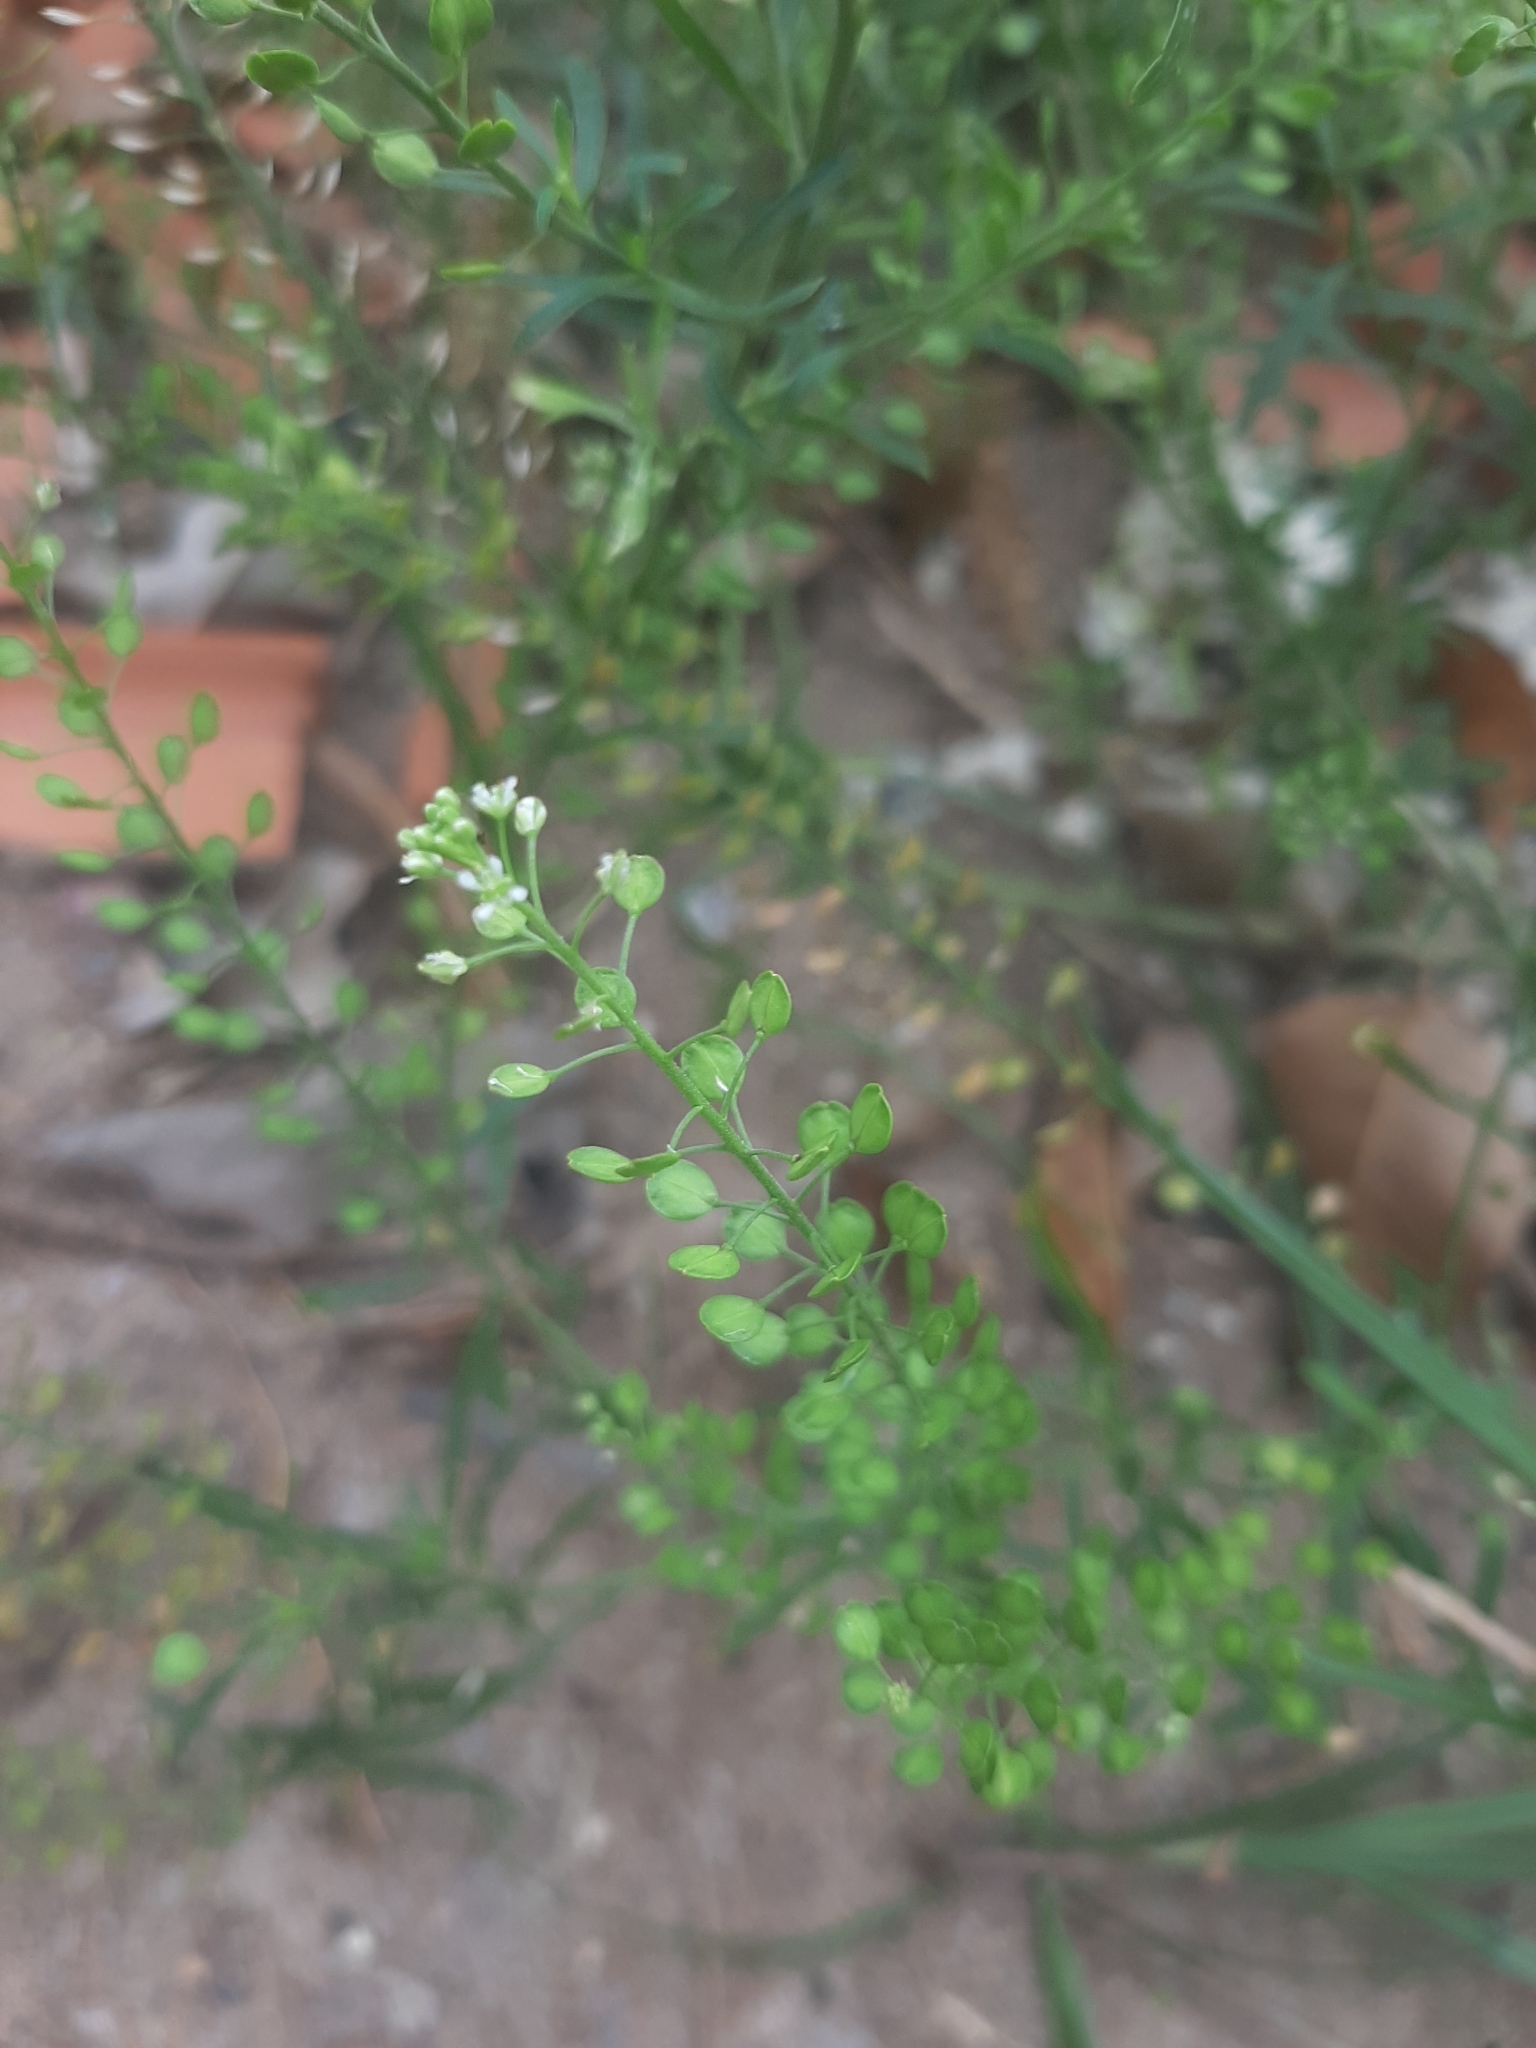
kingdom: Plantae
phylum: Tracheophyta
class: Magnoliopsida
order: Brassicales
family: Brassicaceae
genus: Lepidium
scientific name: Lepidium virginicum
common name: Least pepperwort
